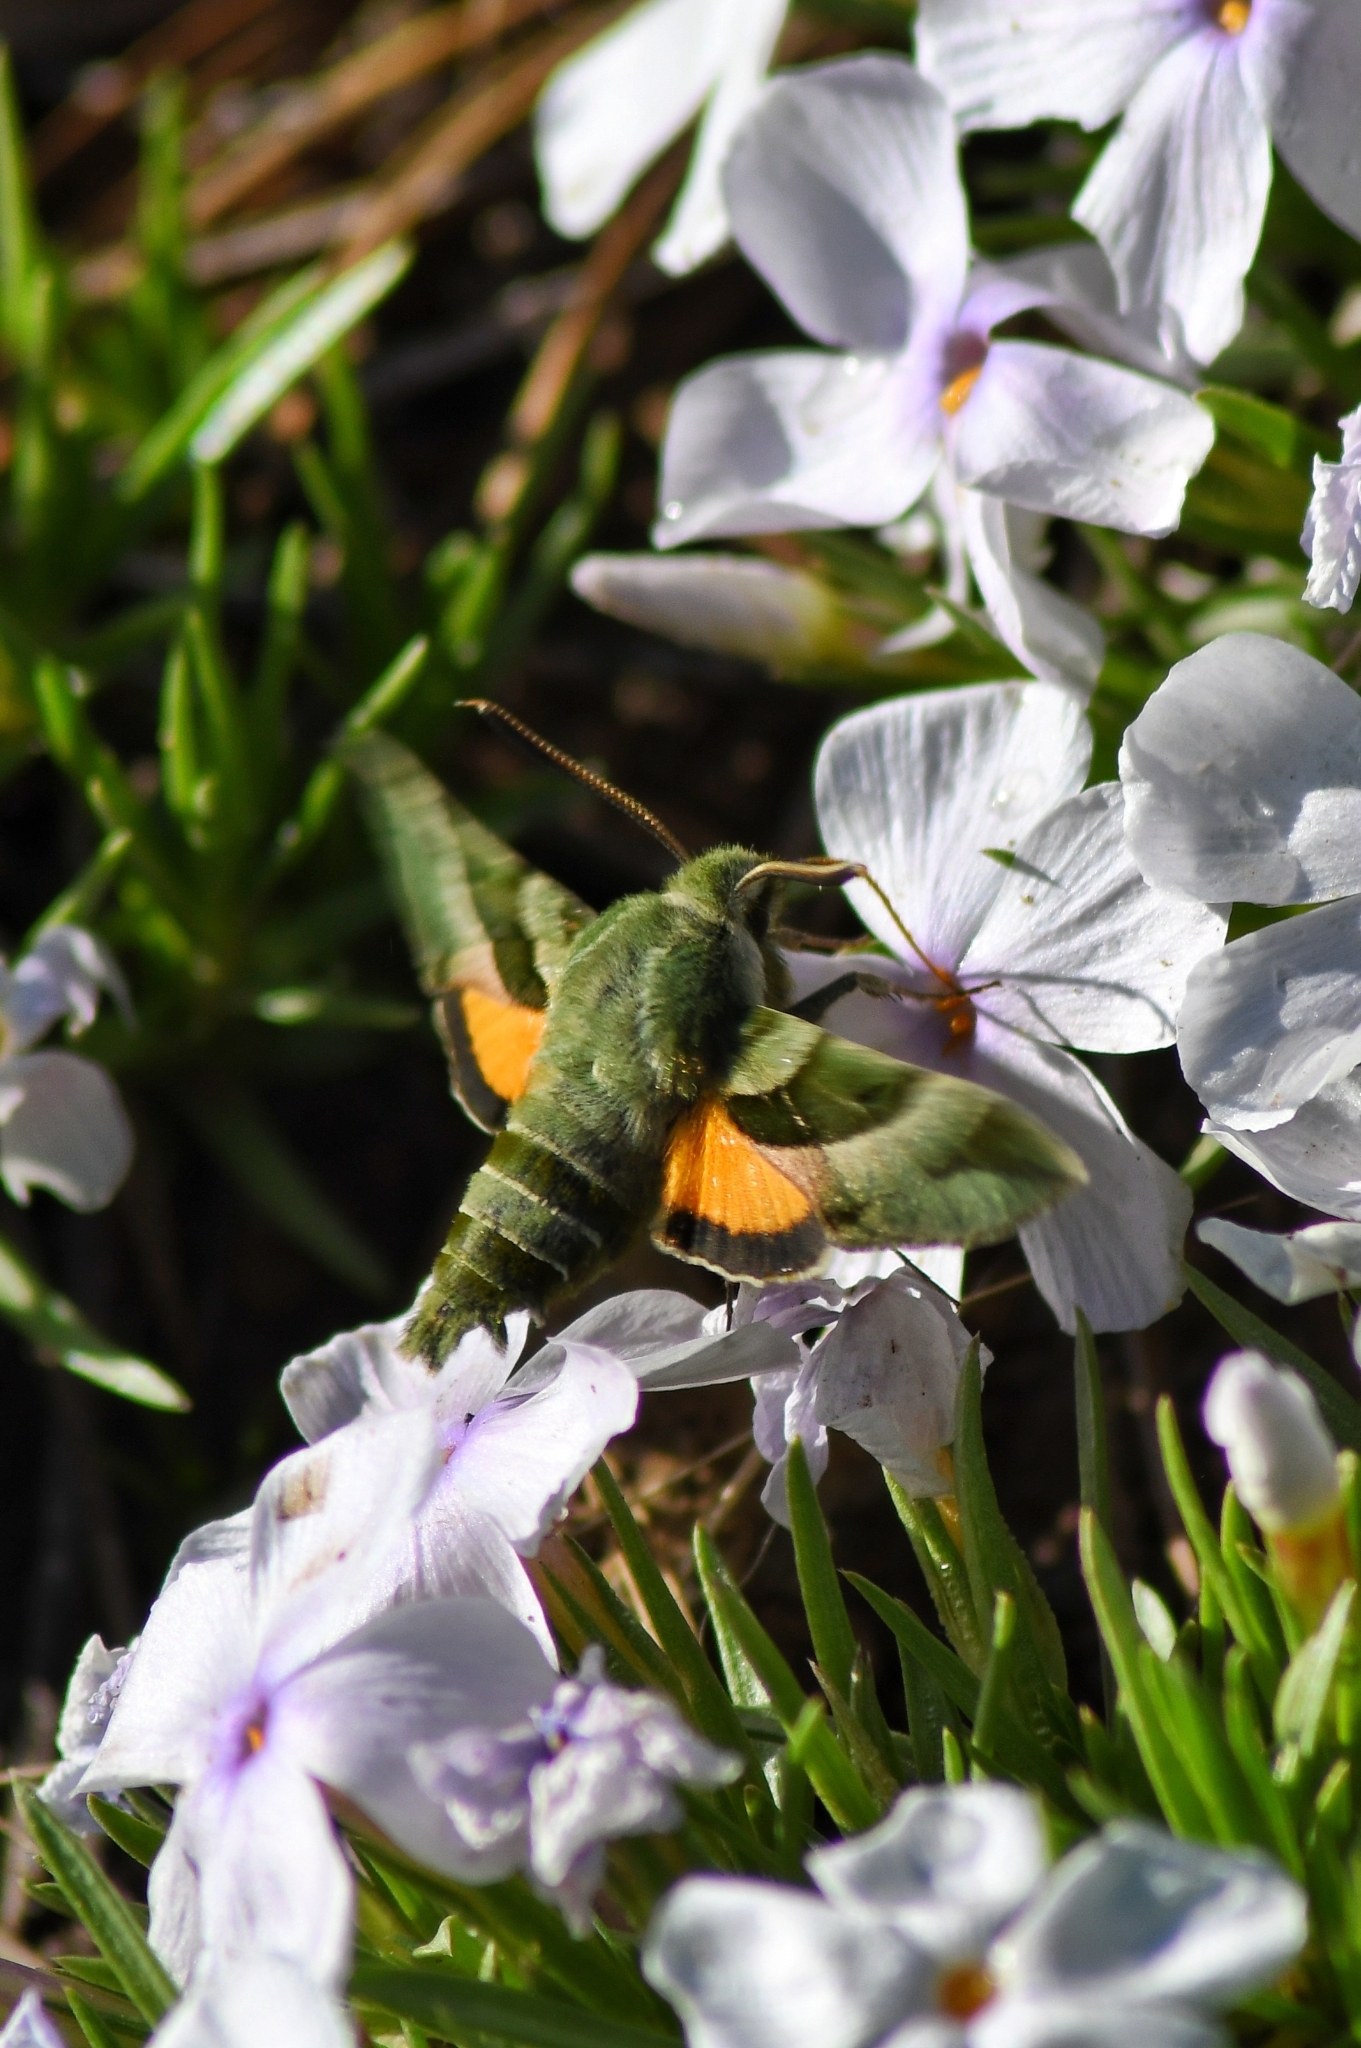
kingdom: Animalia
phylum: Arthropoda
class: Insecta
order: Lepidoptera
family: Sphingidae
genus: Proserpinus
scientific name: Proserpinus clarkiae
